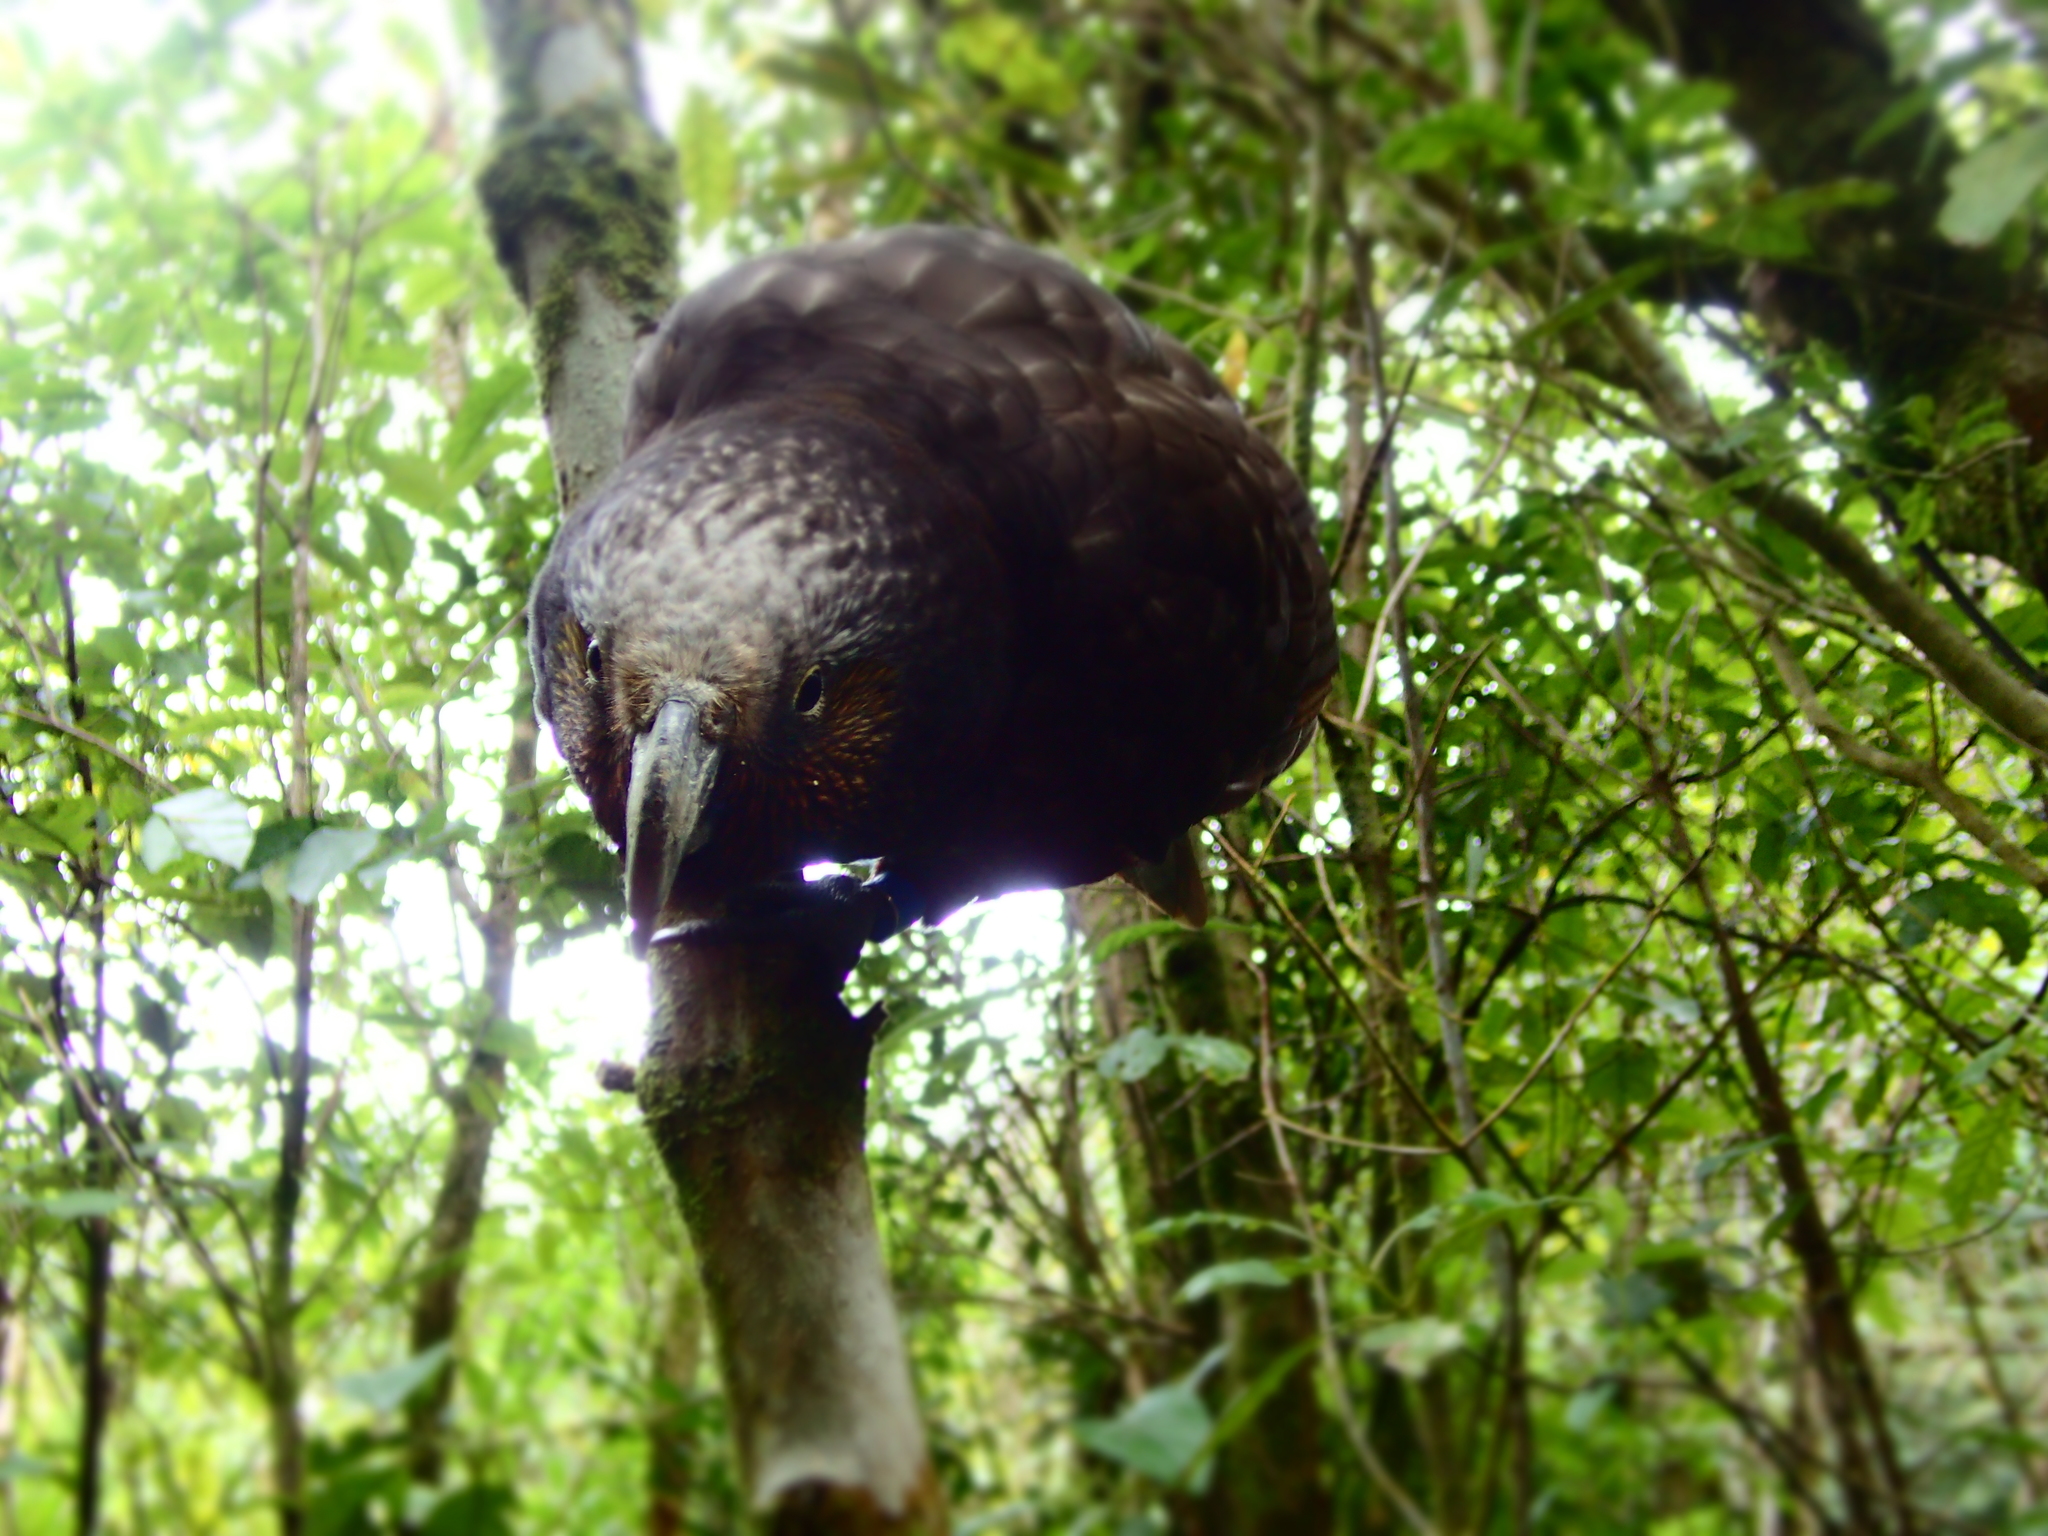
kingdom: Animalia
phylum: Chordata
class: Aves
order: Psittaciformes
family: Psittacidae
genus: Nestor
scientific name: Nestor meridionalis
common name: New zealand kaka
